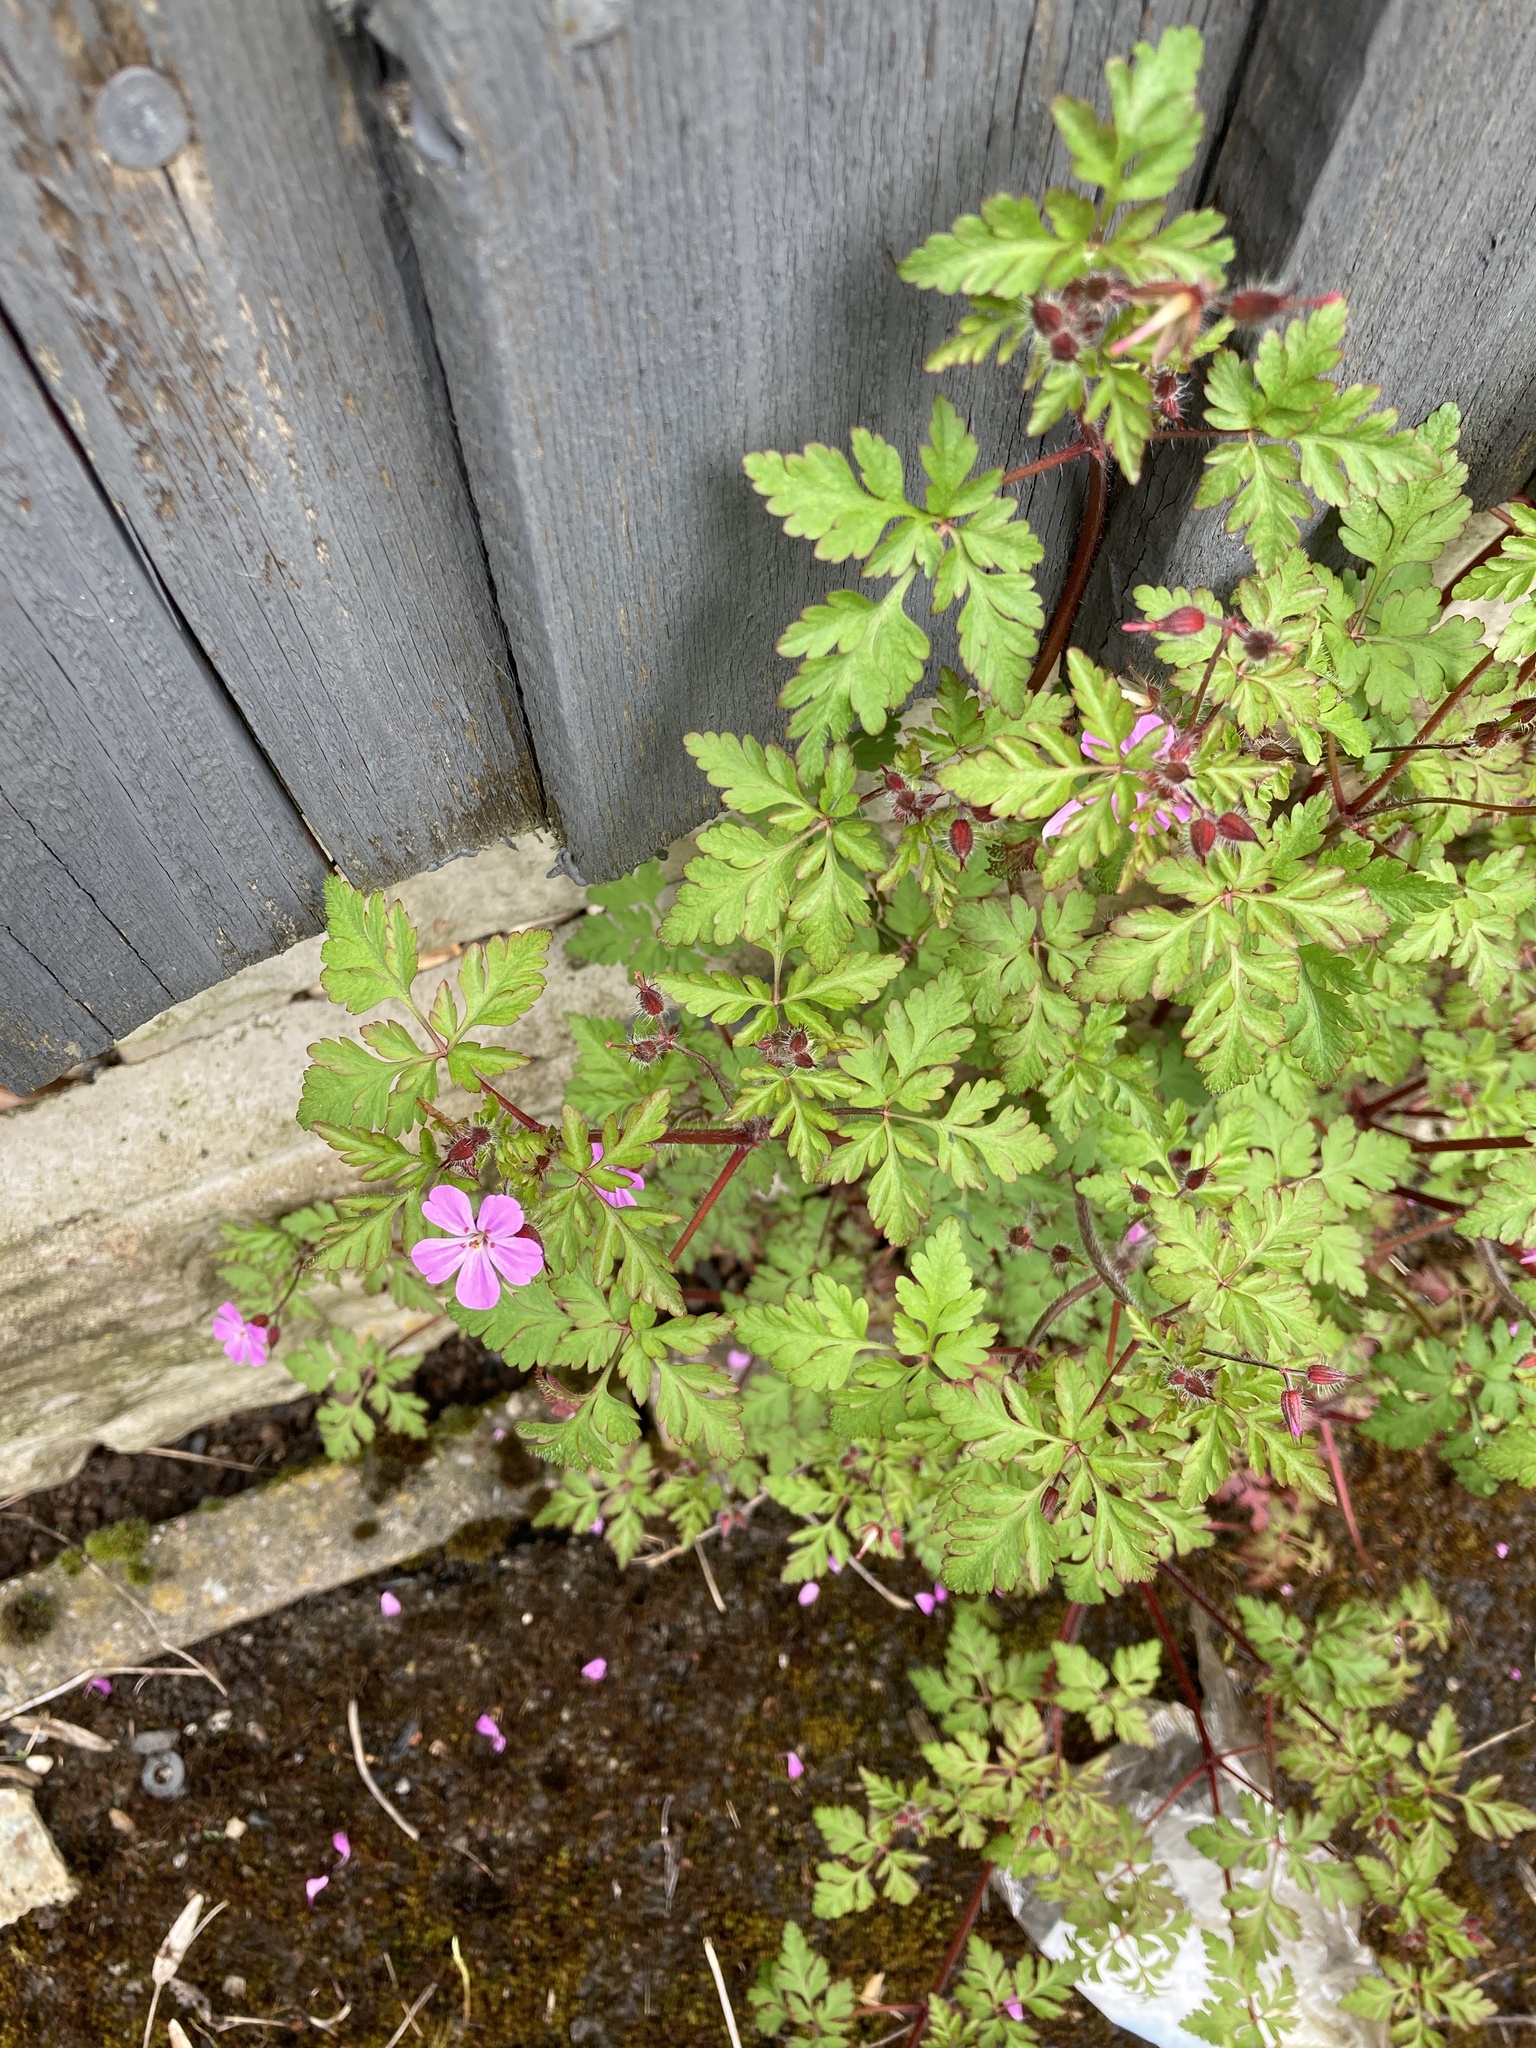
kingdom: Plantae
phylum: Tracheophyta
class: Magnoliopsida
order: Geraniales
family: Geraniaceae
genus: Geranium
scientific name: Geranium robertianum
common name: Herb-robert
